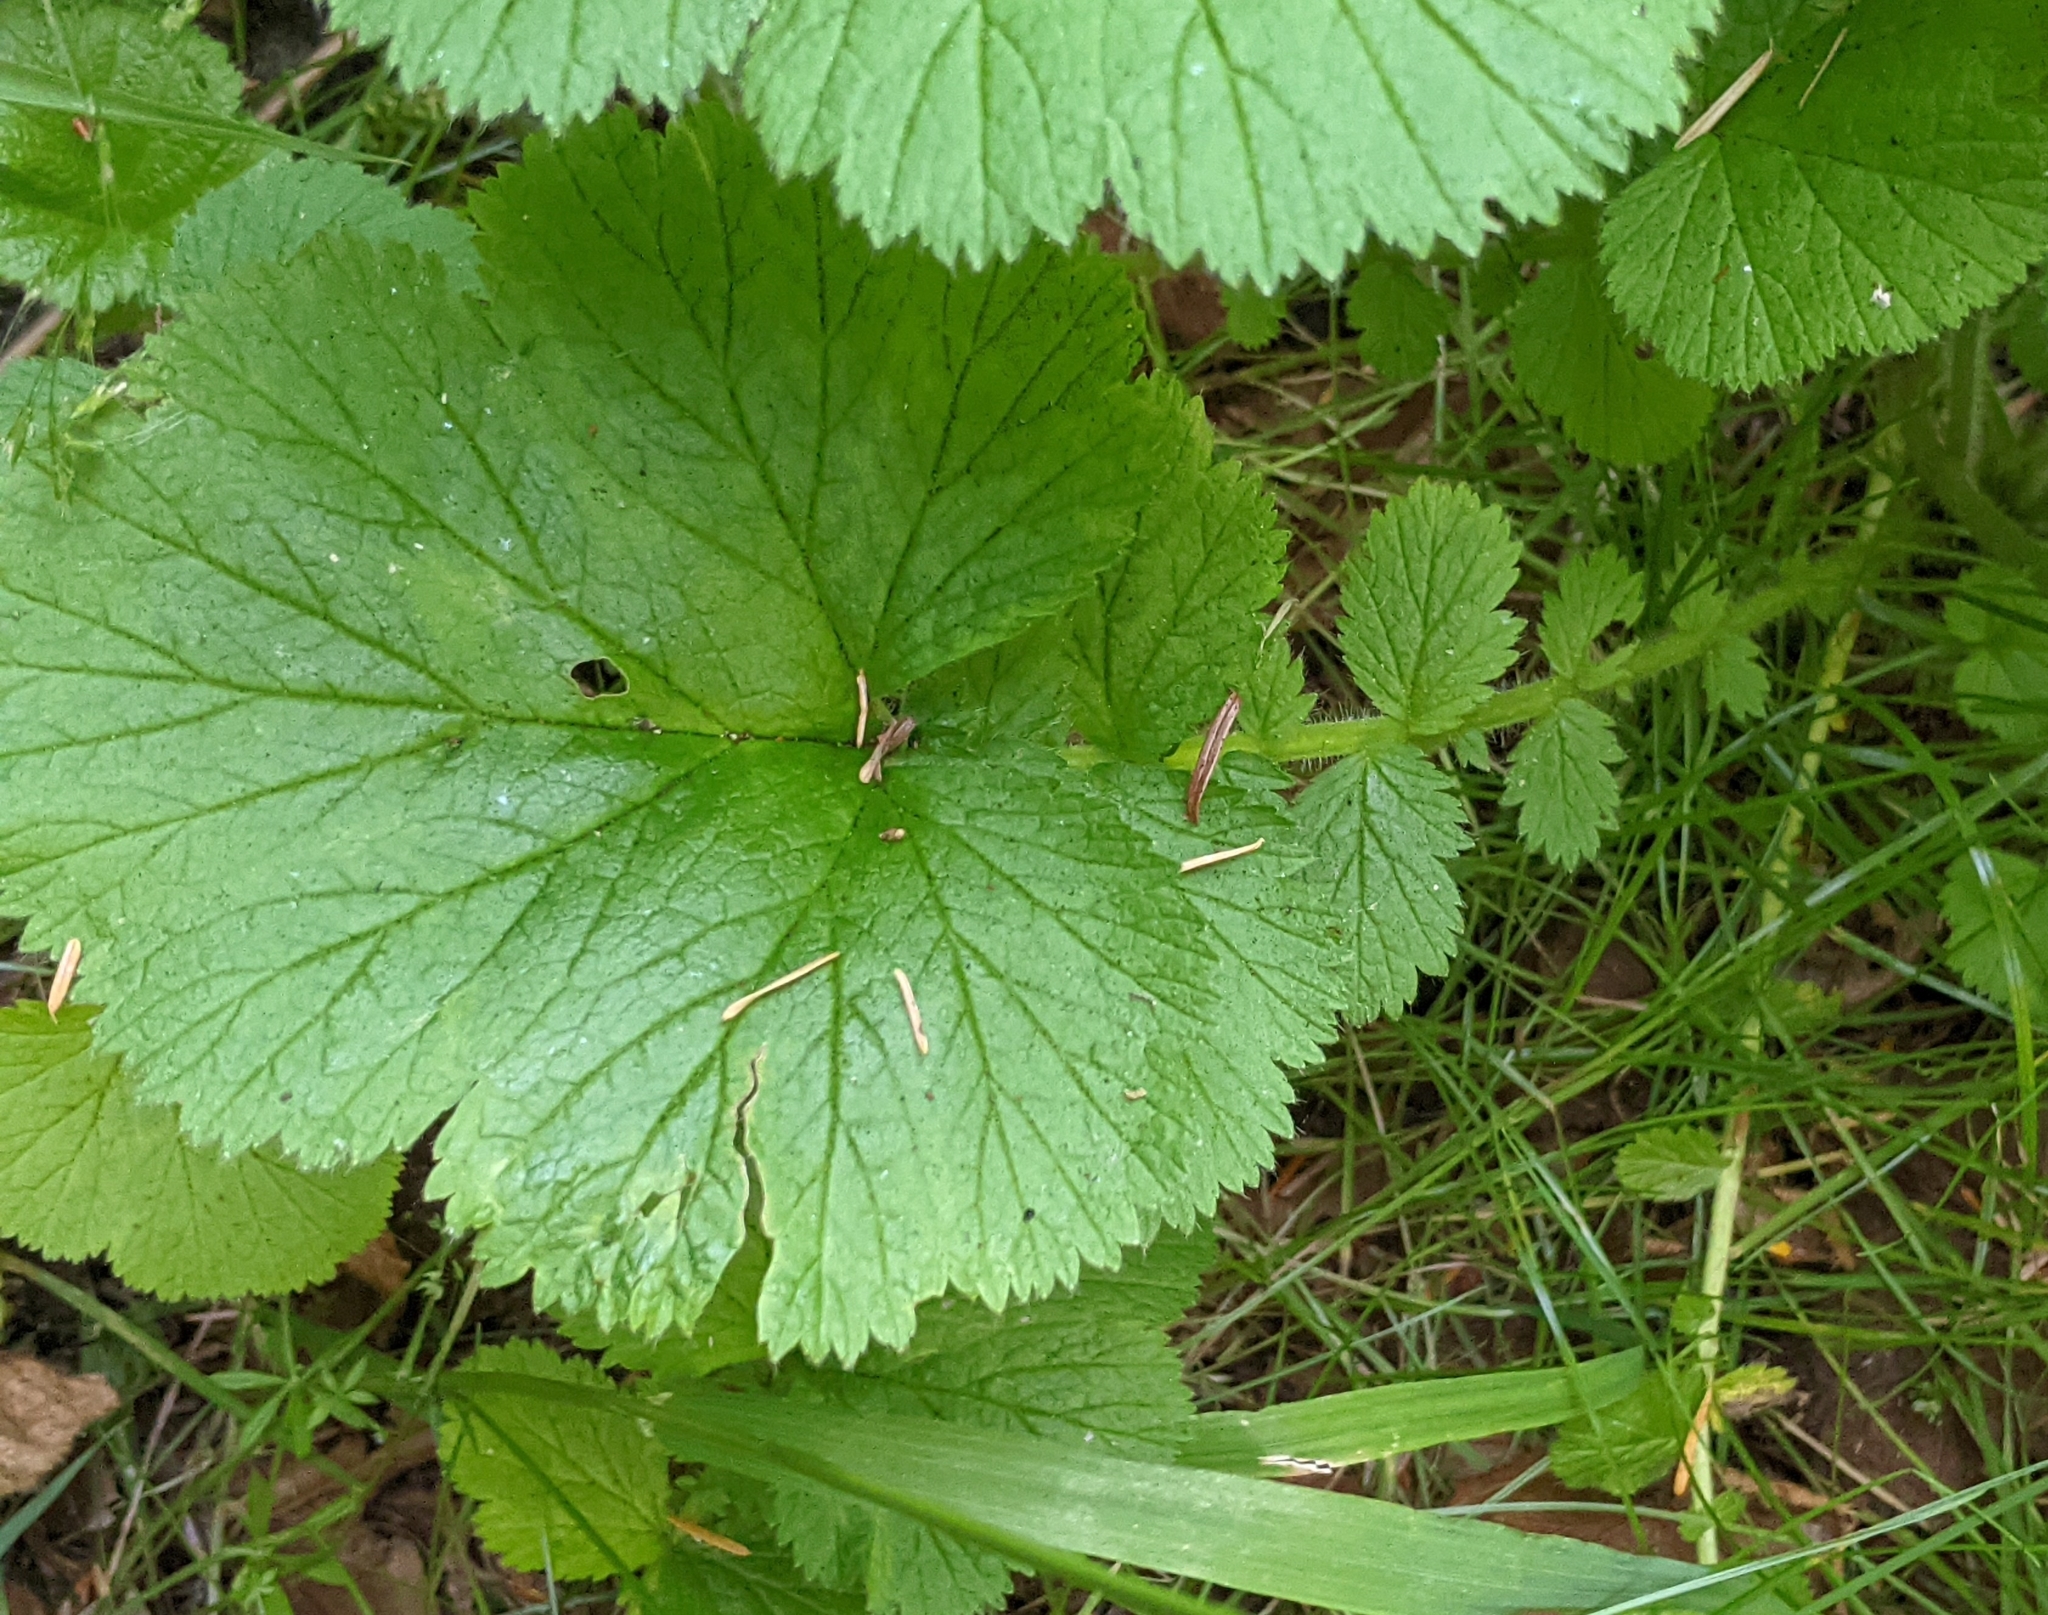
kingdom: Plantae
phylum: Tracheophyta
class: Magnoliopsida
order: Rosales
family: Rosaceae
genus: Geum
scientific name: Geum macrophyllum
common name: Large-leaved avens
